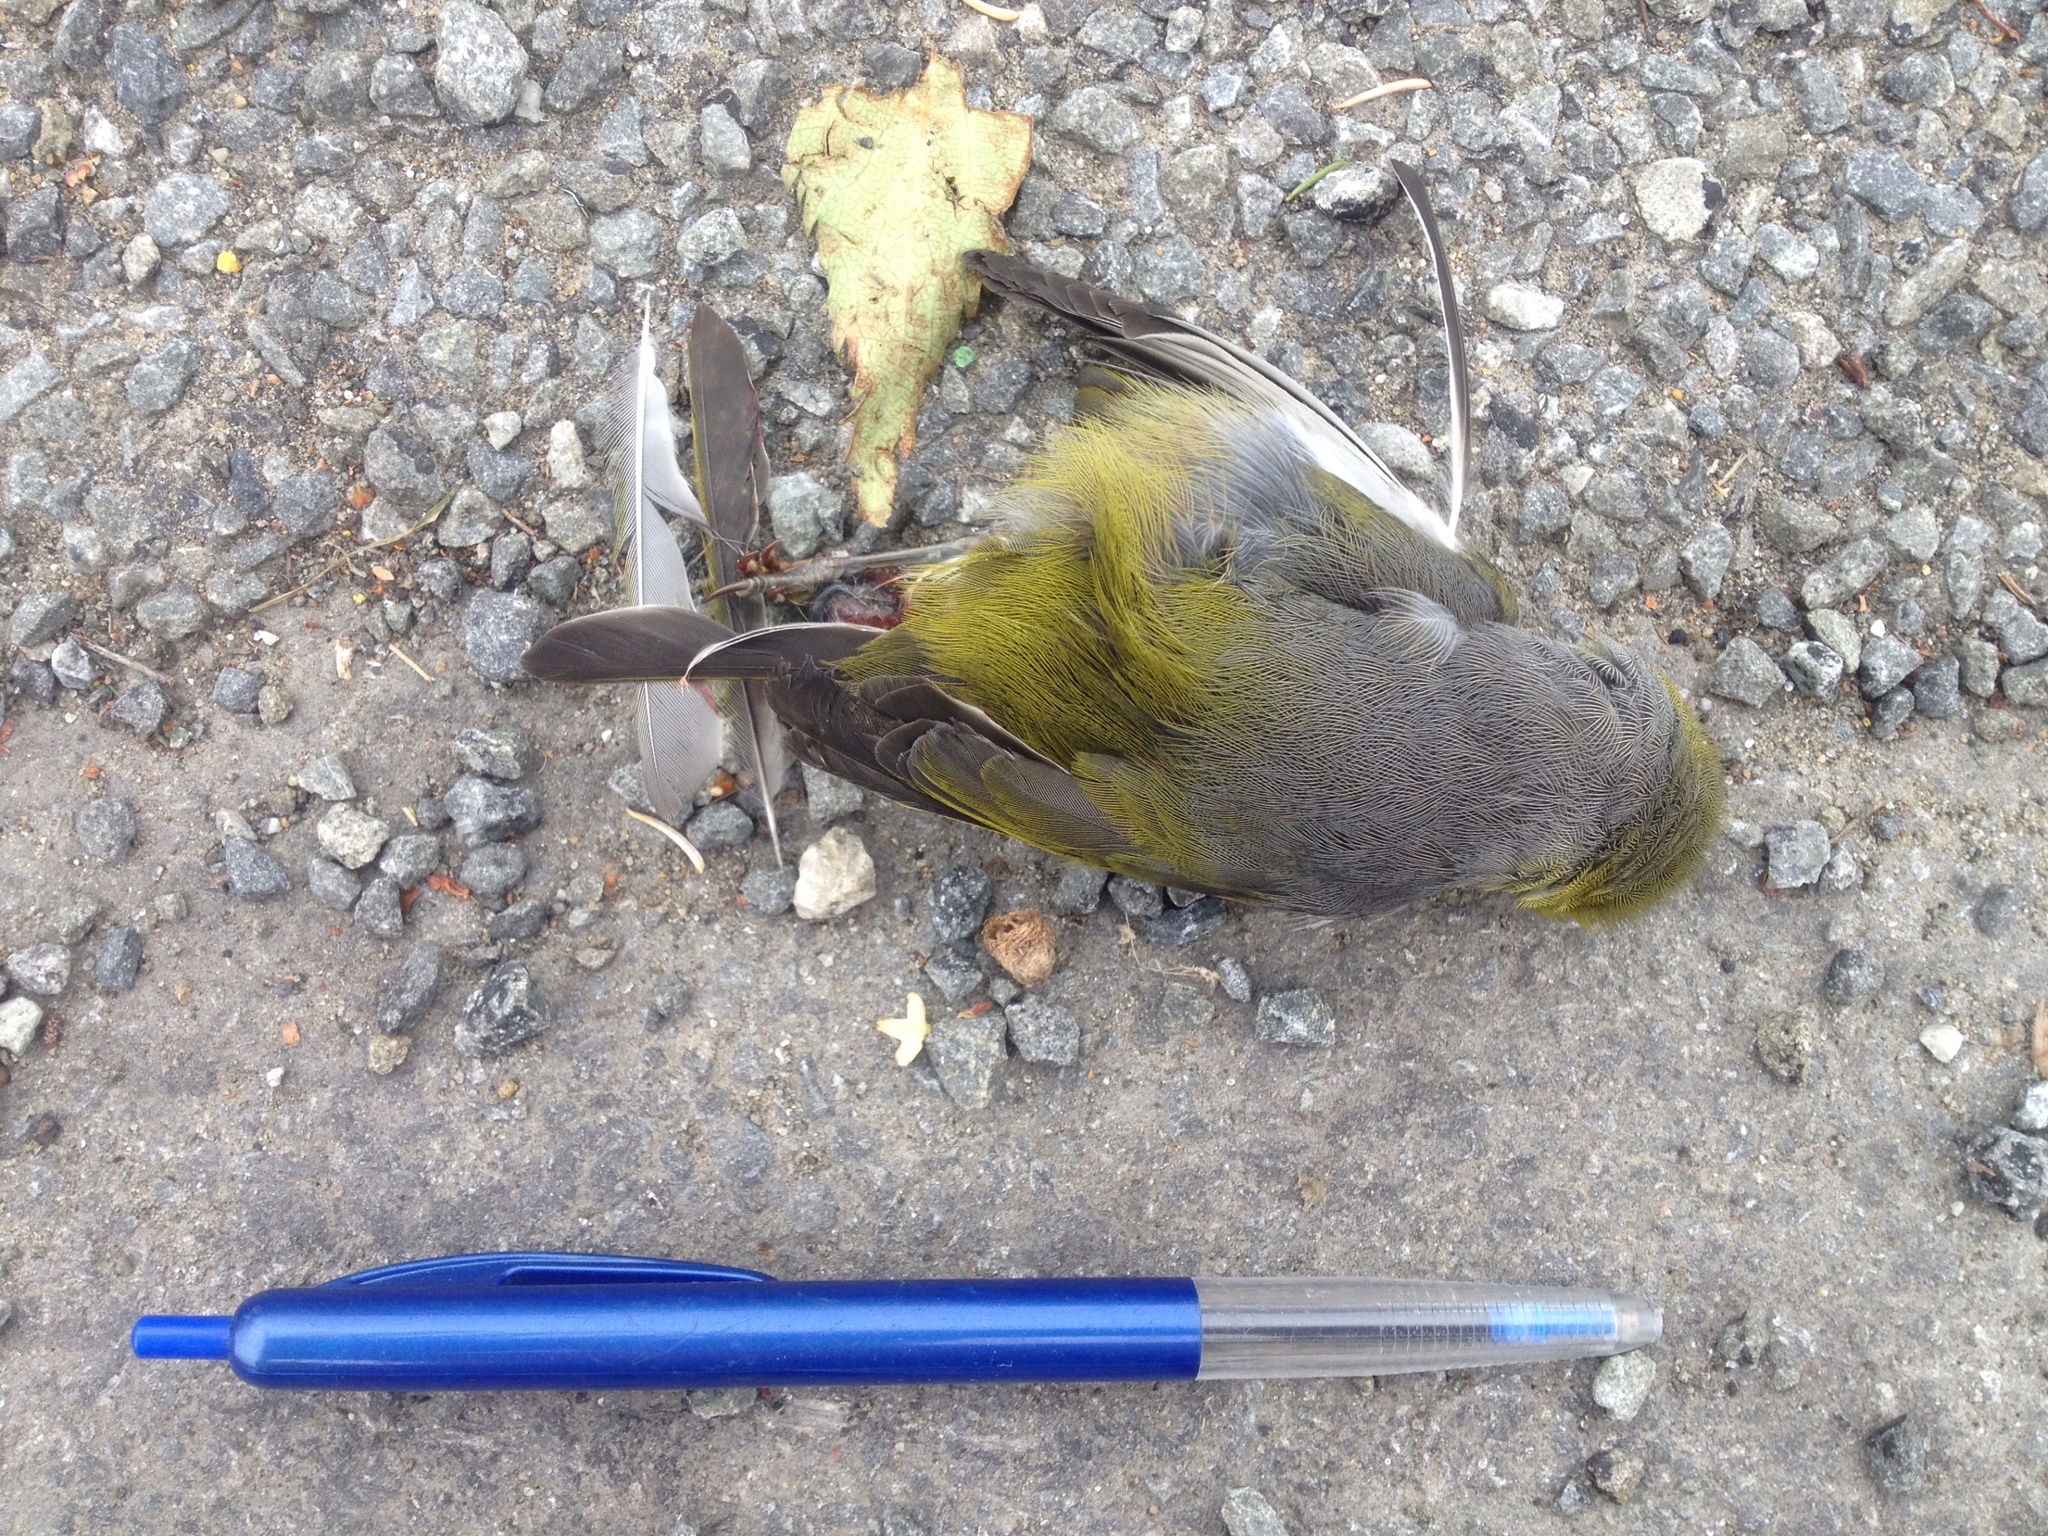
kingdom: Animalia
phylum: Chordata
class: Aves
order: Passeriformes
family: Zosteropidae
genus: Zosterops
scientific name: Zosterops lateralis
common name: Silvereye
